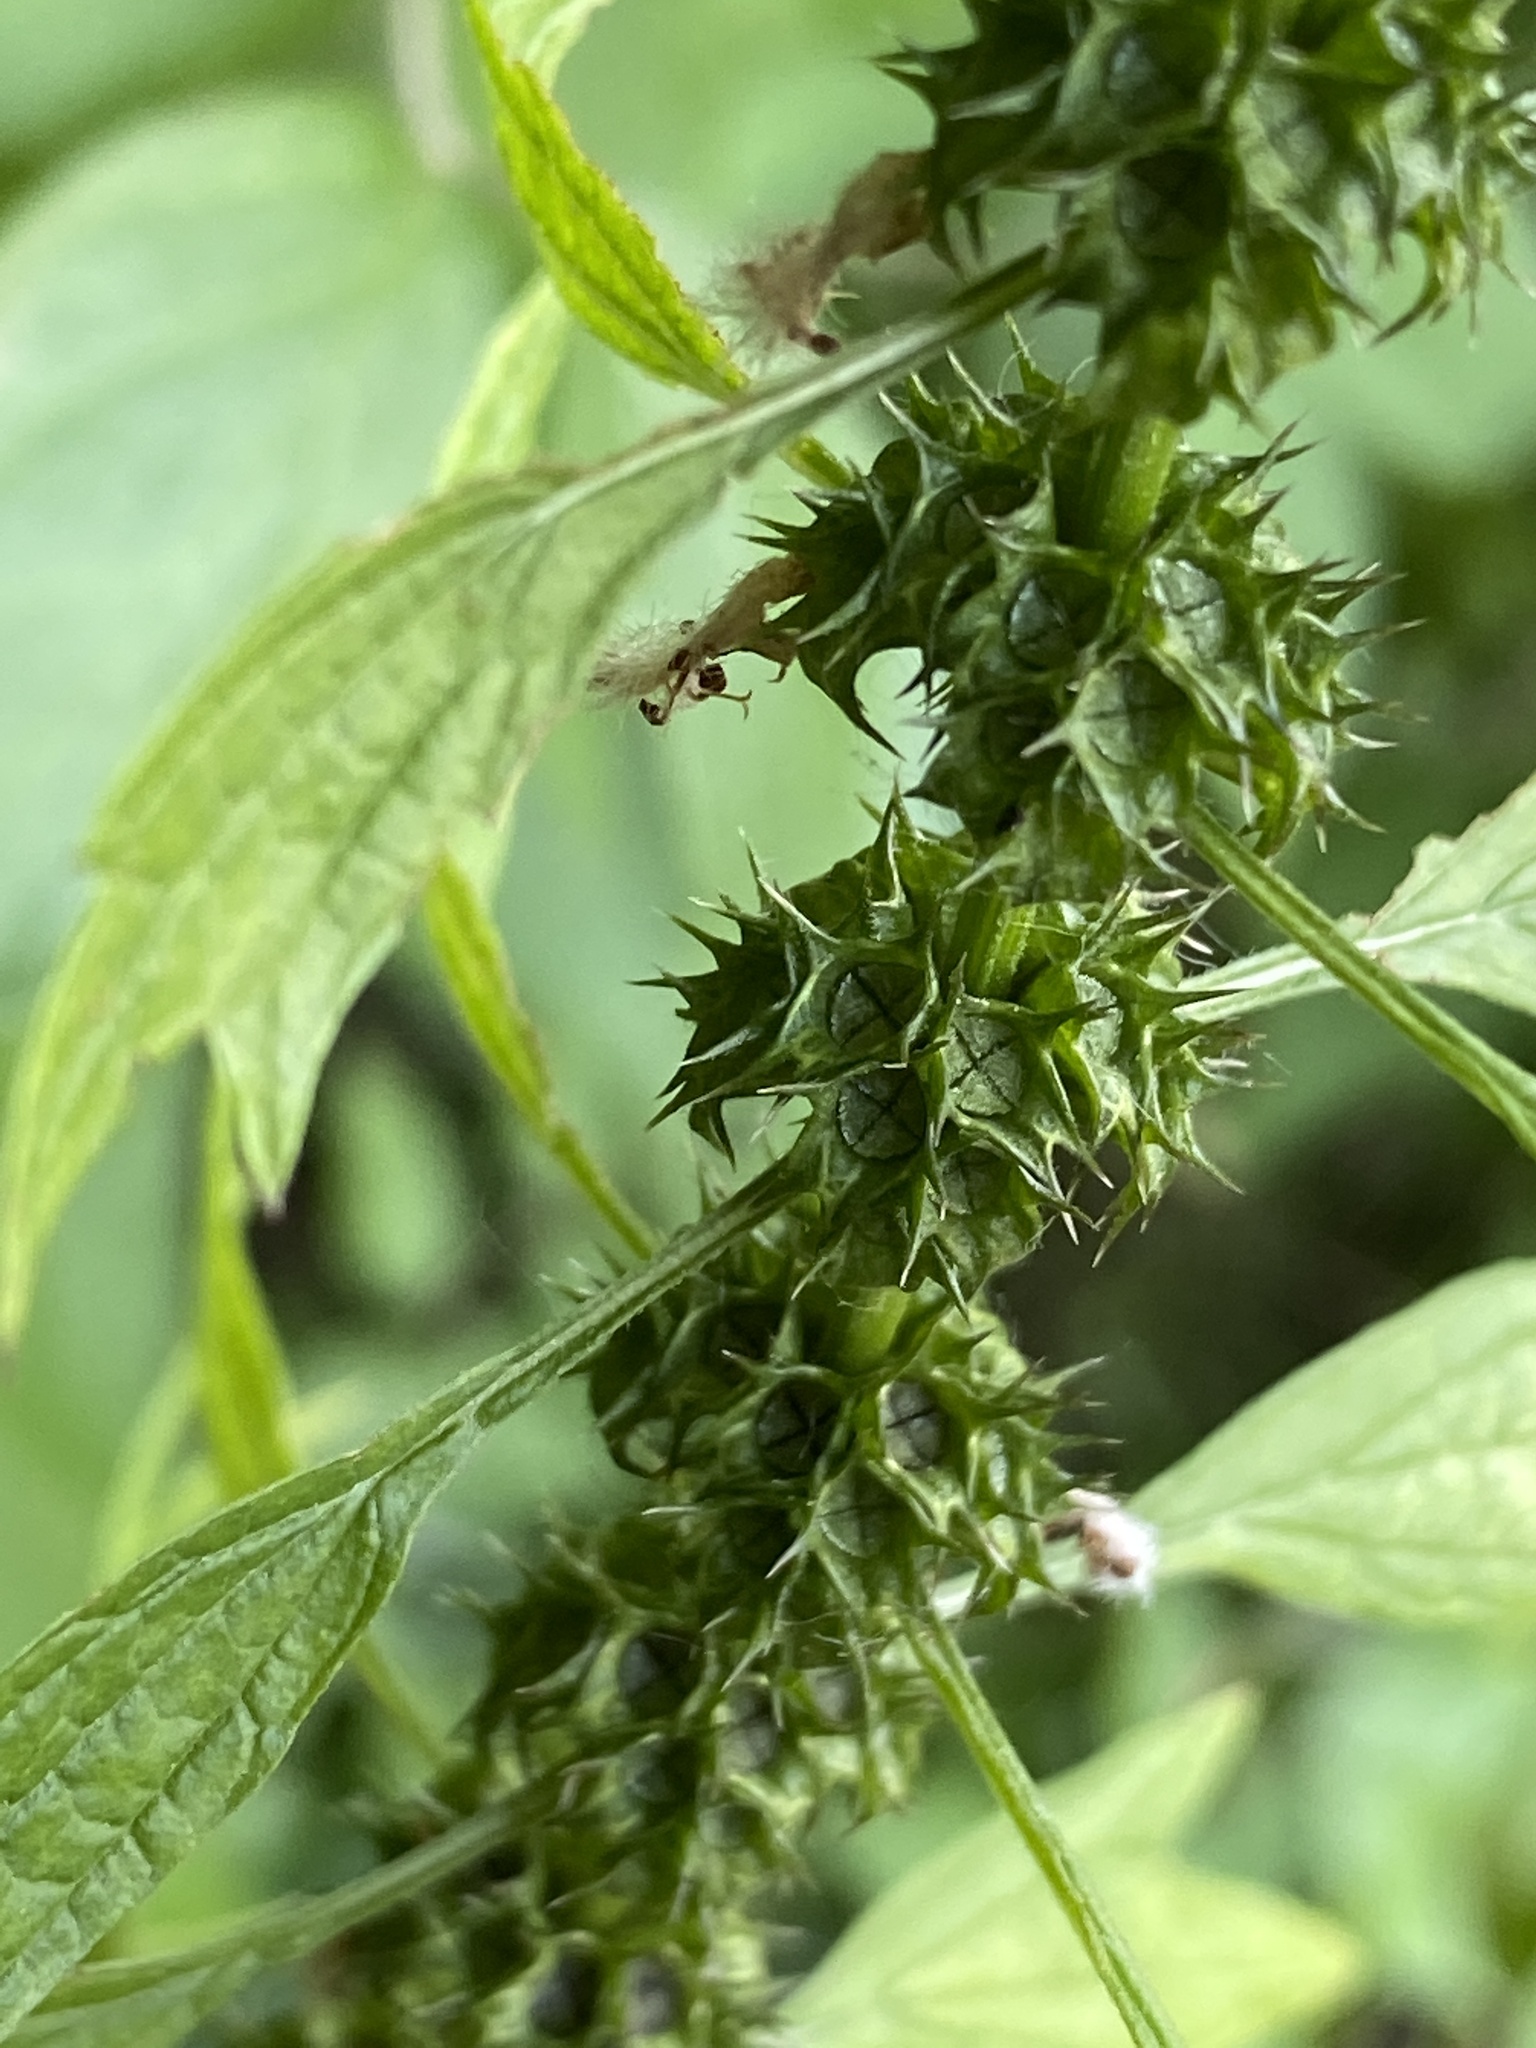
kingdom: Plantae
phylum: Tracheophyta
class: Magnoliopsida
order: Lamiales
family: Lamiaceae
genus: Leonurus
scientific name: Leonurus cardiaca
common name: Motherwort
